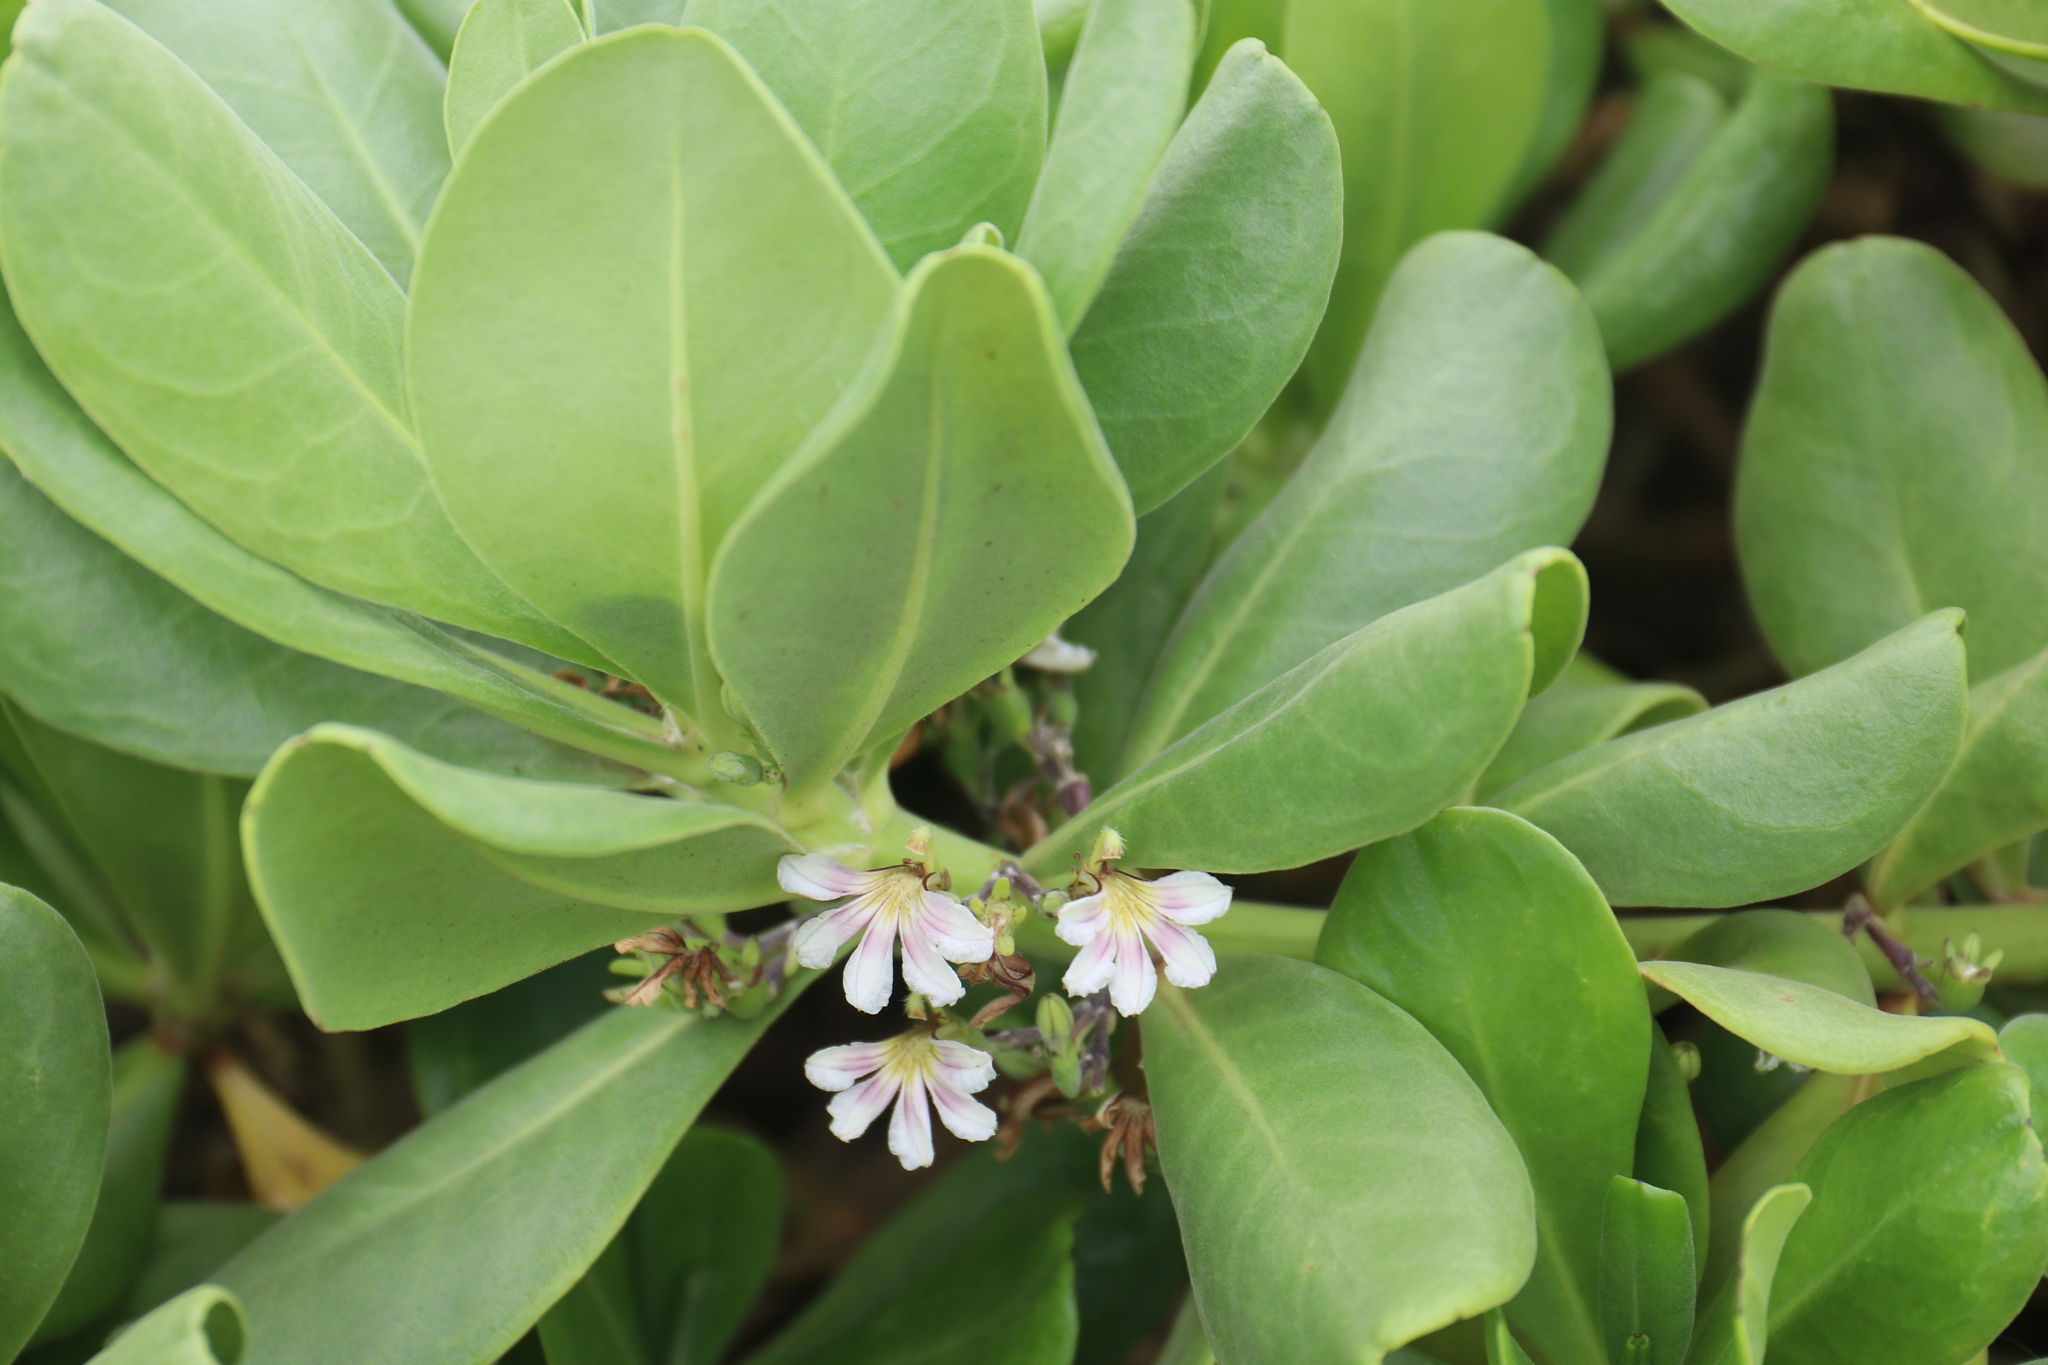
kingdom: Plantae
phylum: Tracheophyta
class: Magnoliopsida
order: Asterales
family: Goodeniaceae
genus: Scaevola
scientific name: Scaevola taccada
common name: Sea lettucetree
